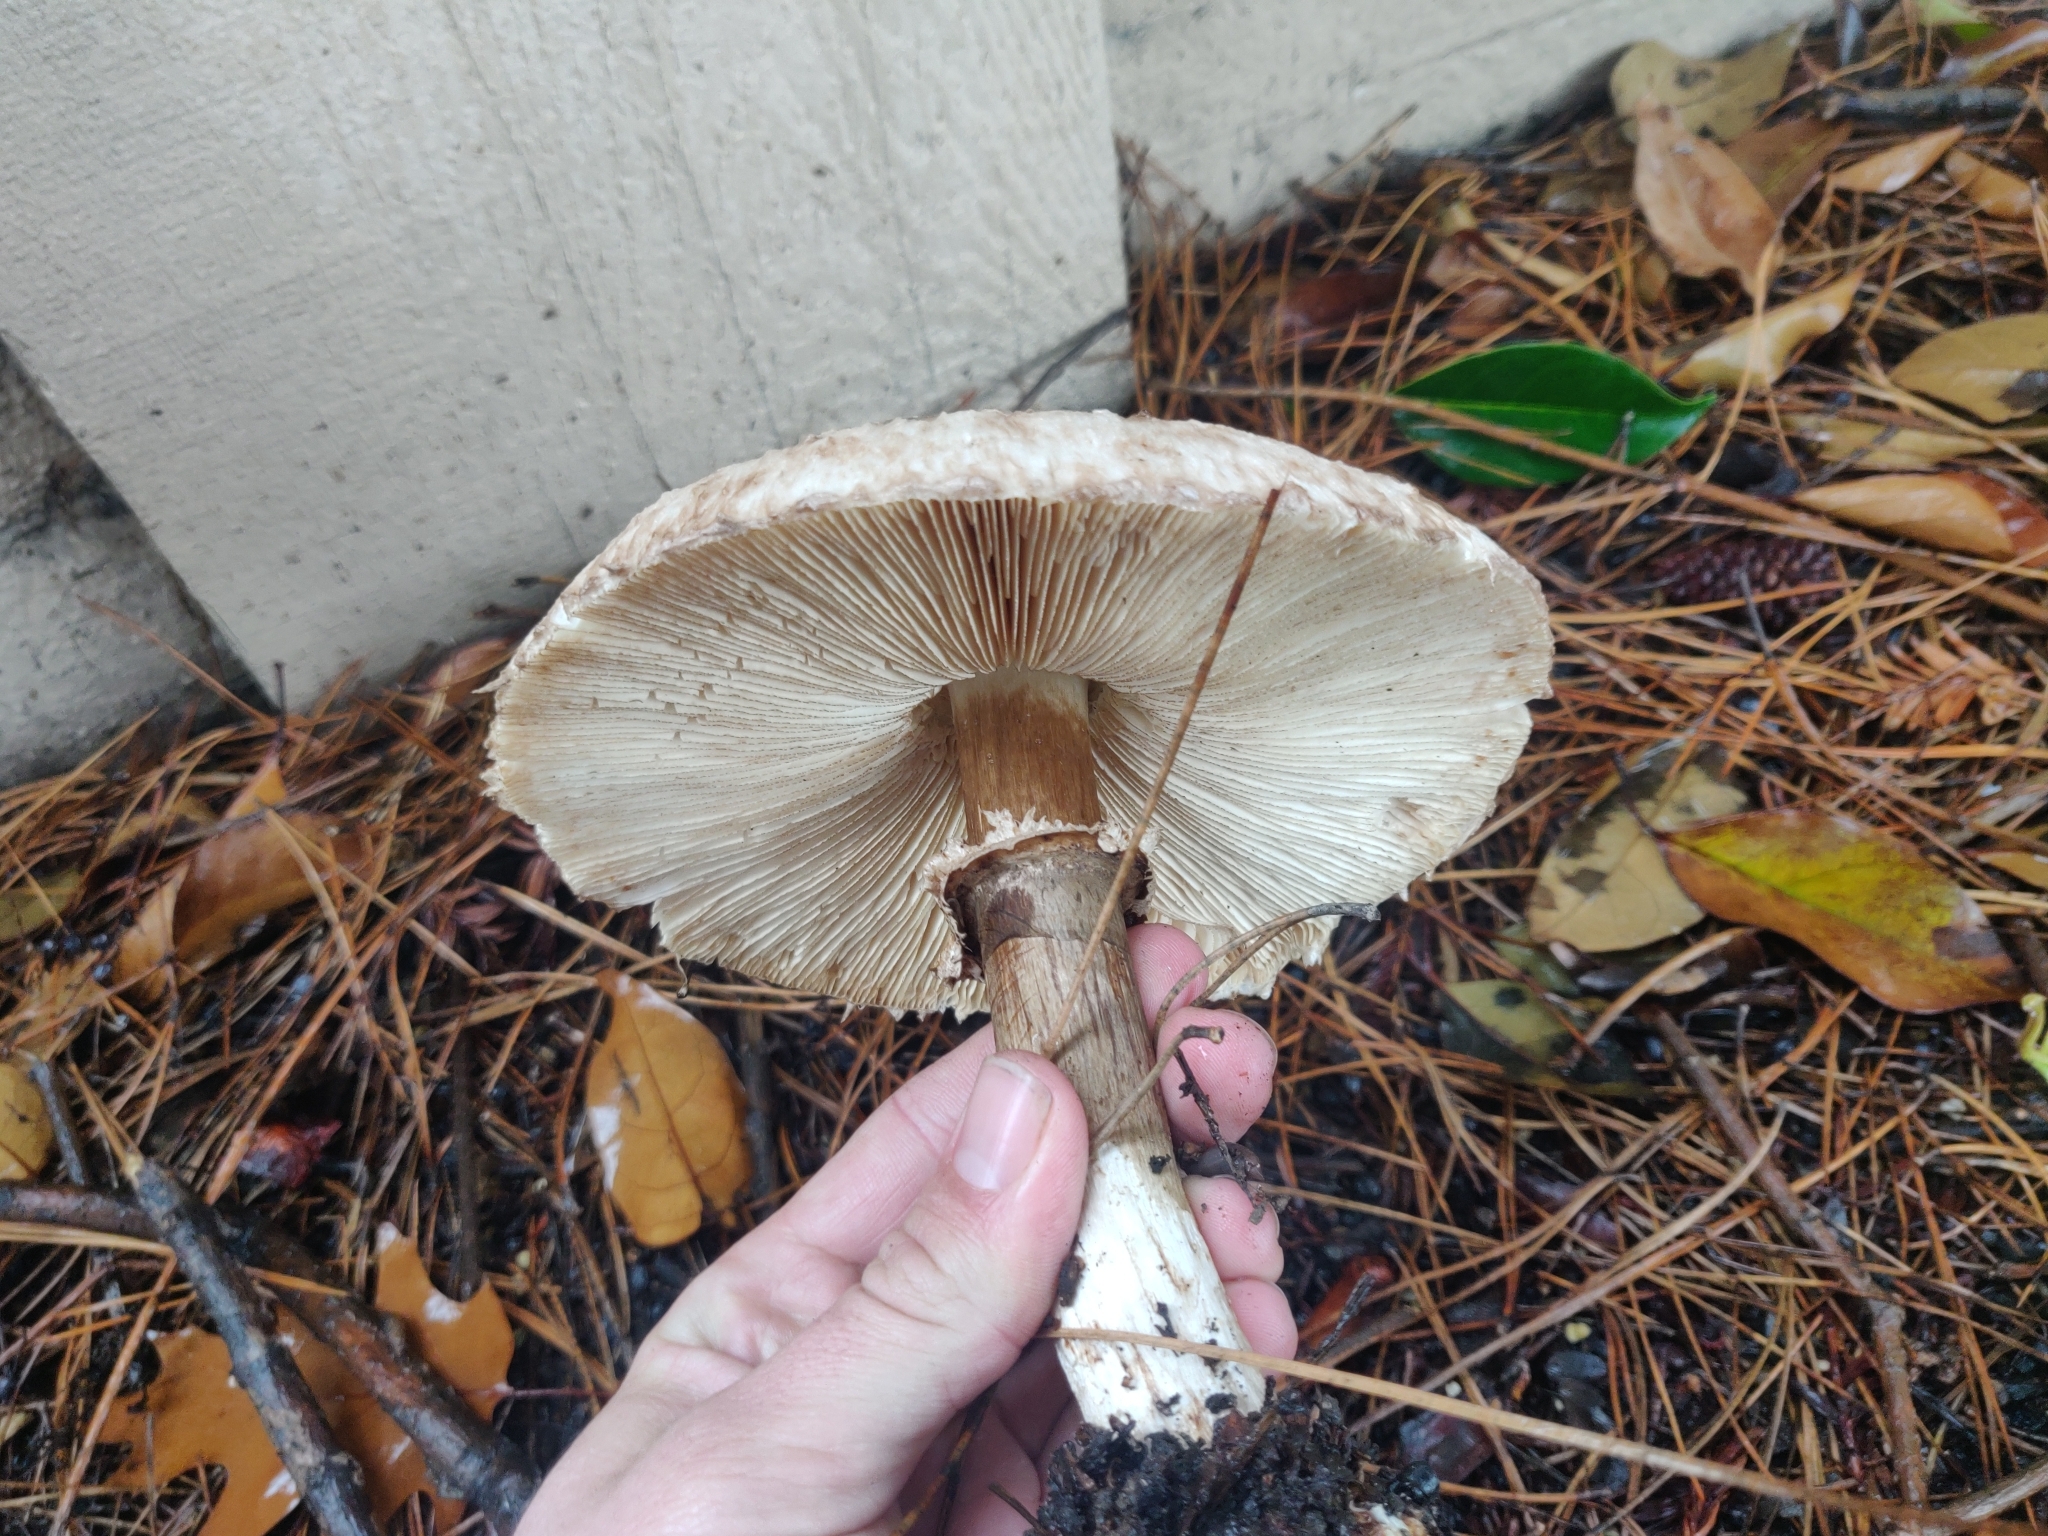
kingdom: Fungi
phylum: Basidiomycota
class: Agaricomycetes
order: Agaricales
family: Agaricaceae
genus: Chlorophyllum
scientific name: Chlorophyllum brunneum
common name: Brown parasol
